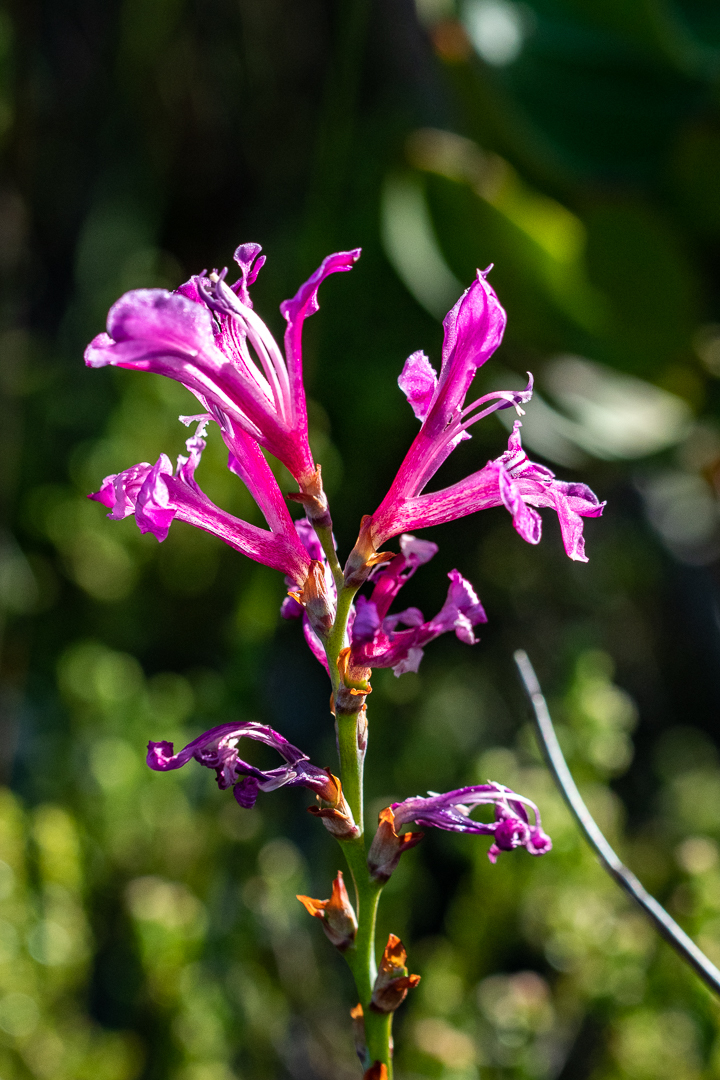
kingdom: Plantae
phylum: Tracheophyta
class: Liliopsida
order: Asparagales
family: Iridaceae
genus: Tritoniopsis
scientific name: Tritoniopsis lata
